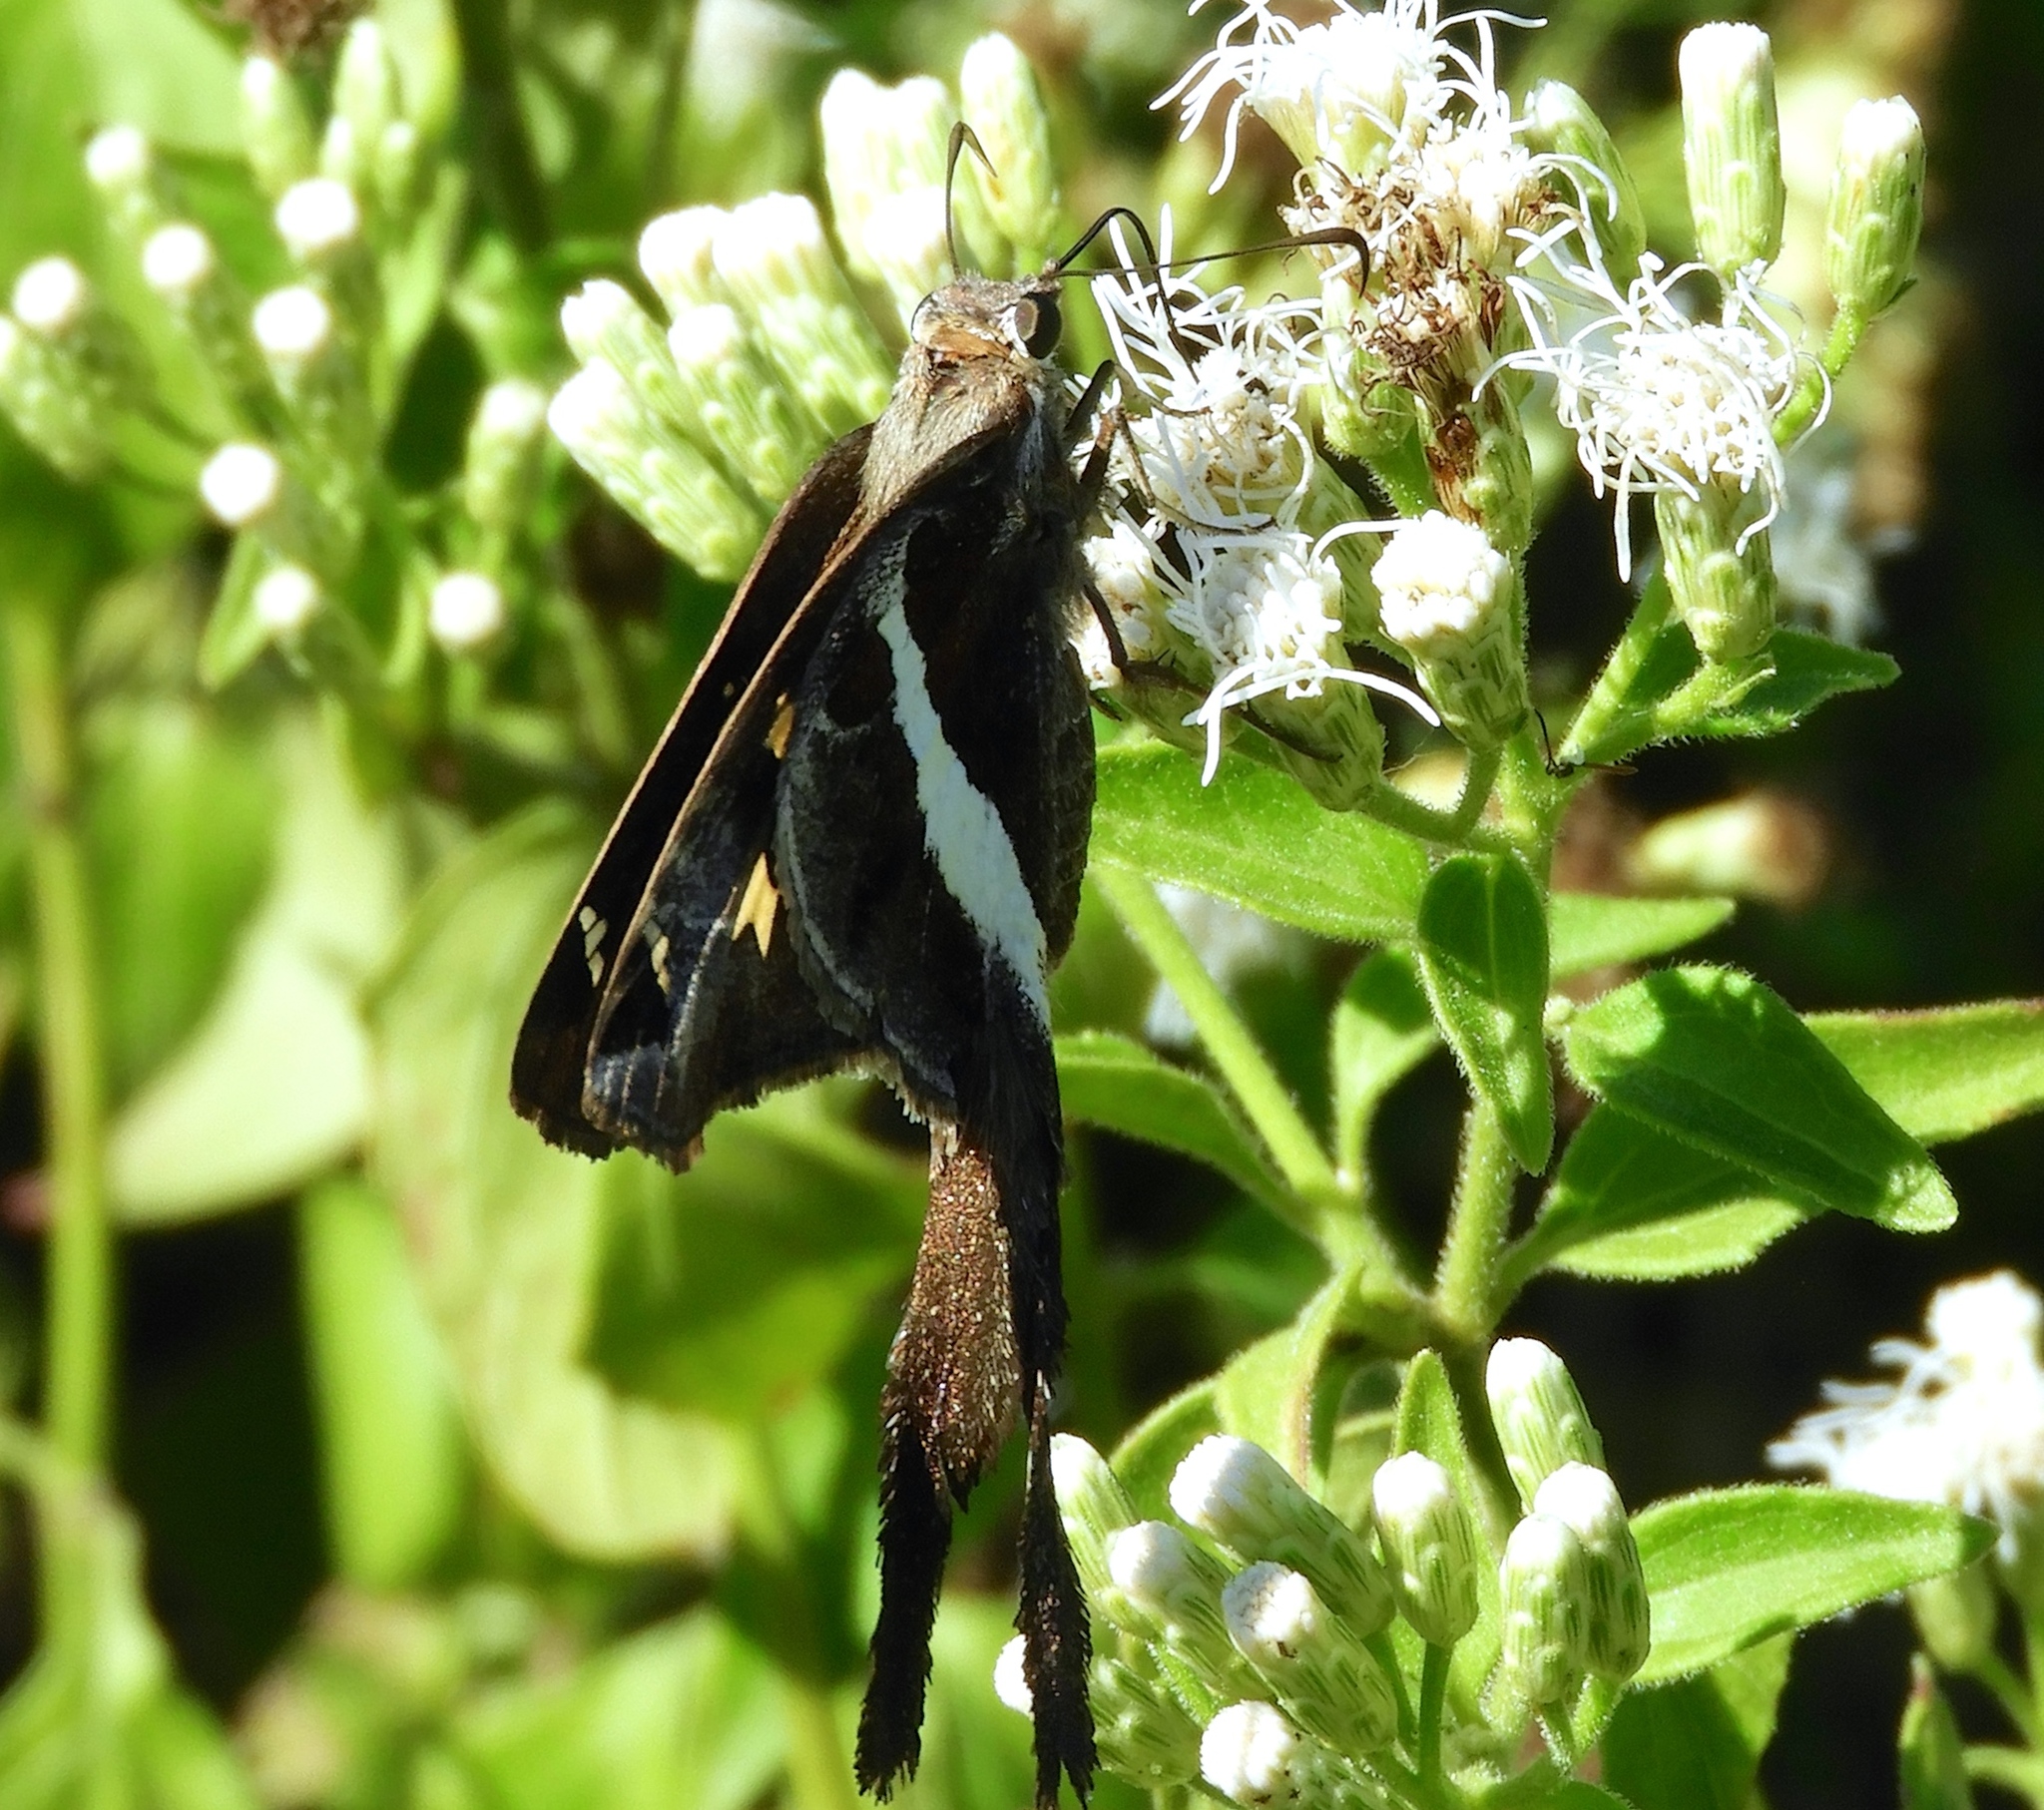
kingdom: Animalia
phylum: Arthropoda
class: Insecta
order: Lepidoptera
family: Hesperiidae
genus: Chioides
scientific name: Chioides catillus
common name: Silverbanded skipper
